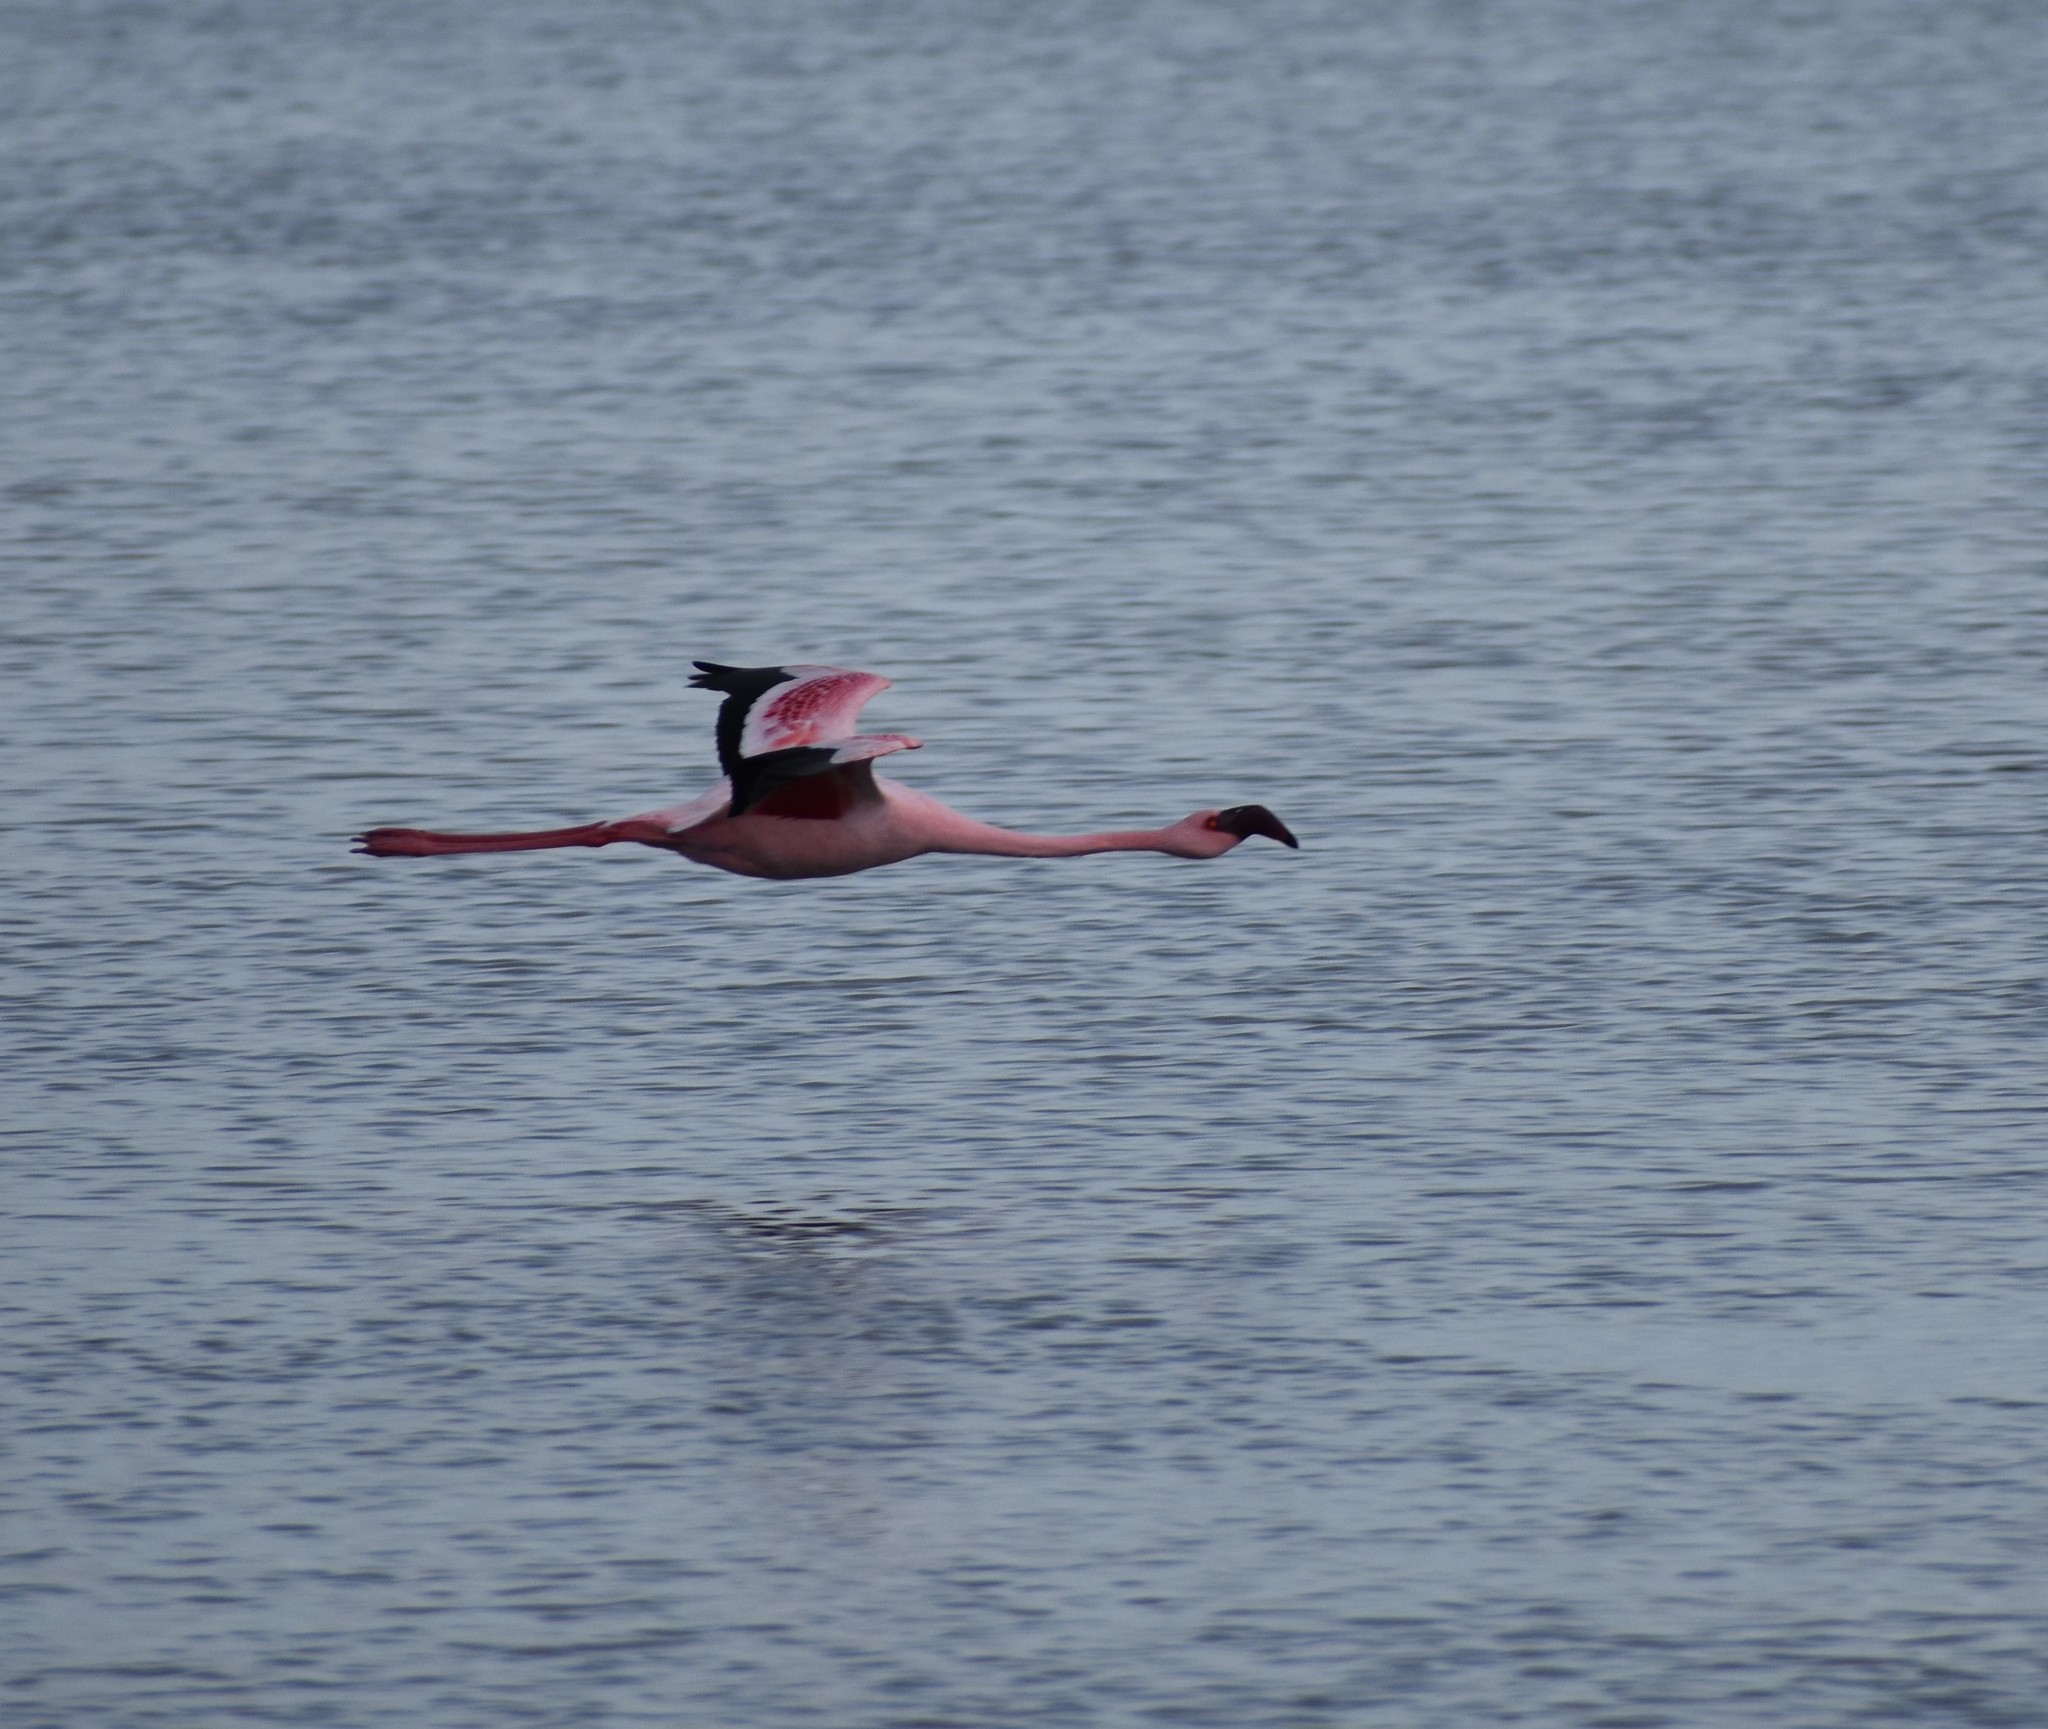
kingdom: Animalia
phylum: Chordata
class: Aves
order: Phoenicopteriformes
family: Phoenicopteridae
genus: Phoeniconaias
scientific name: Phoeniconaias minor
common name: Lesser flamingo
